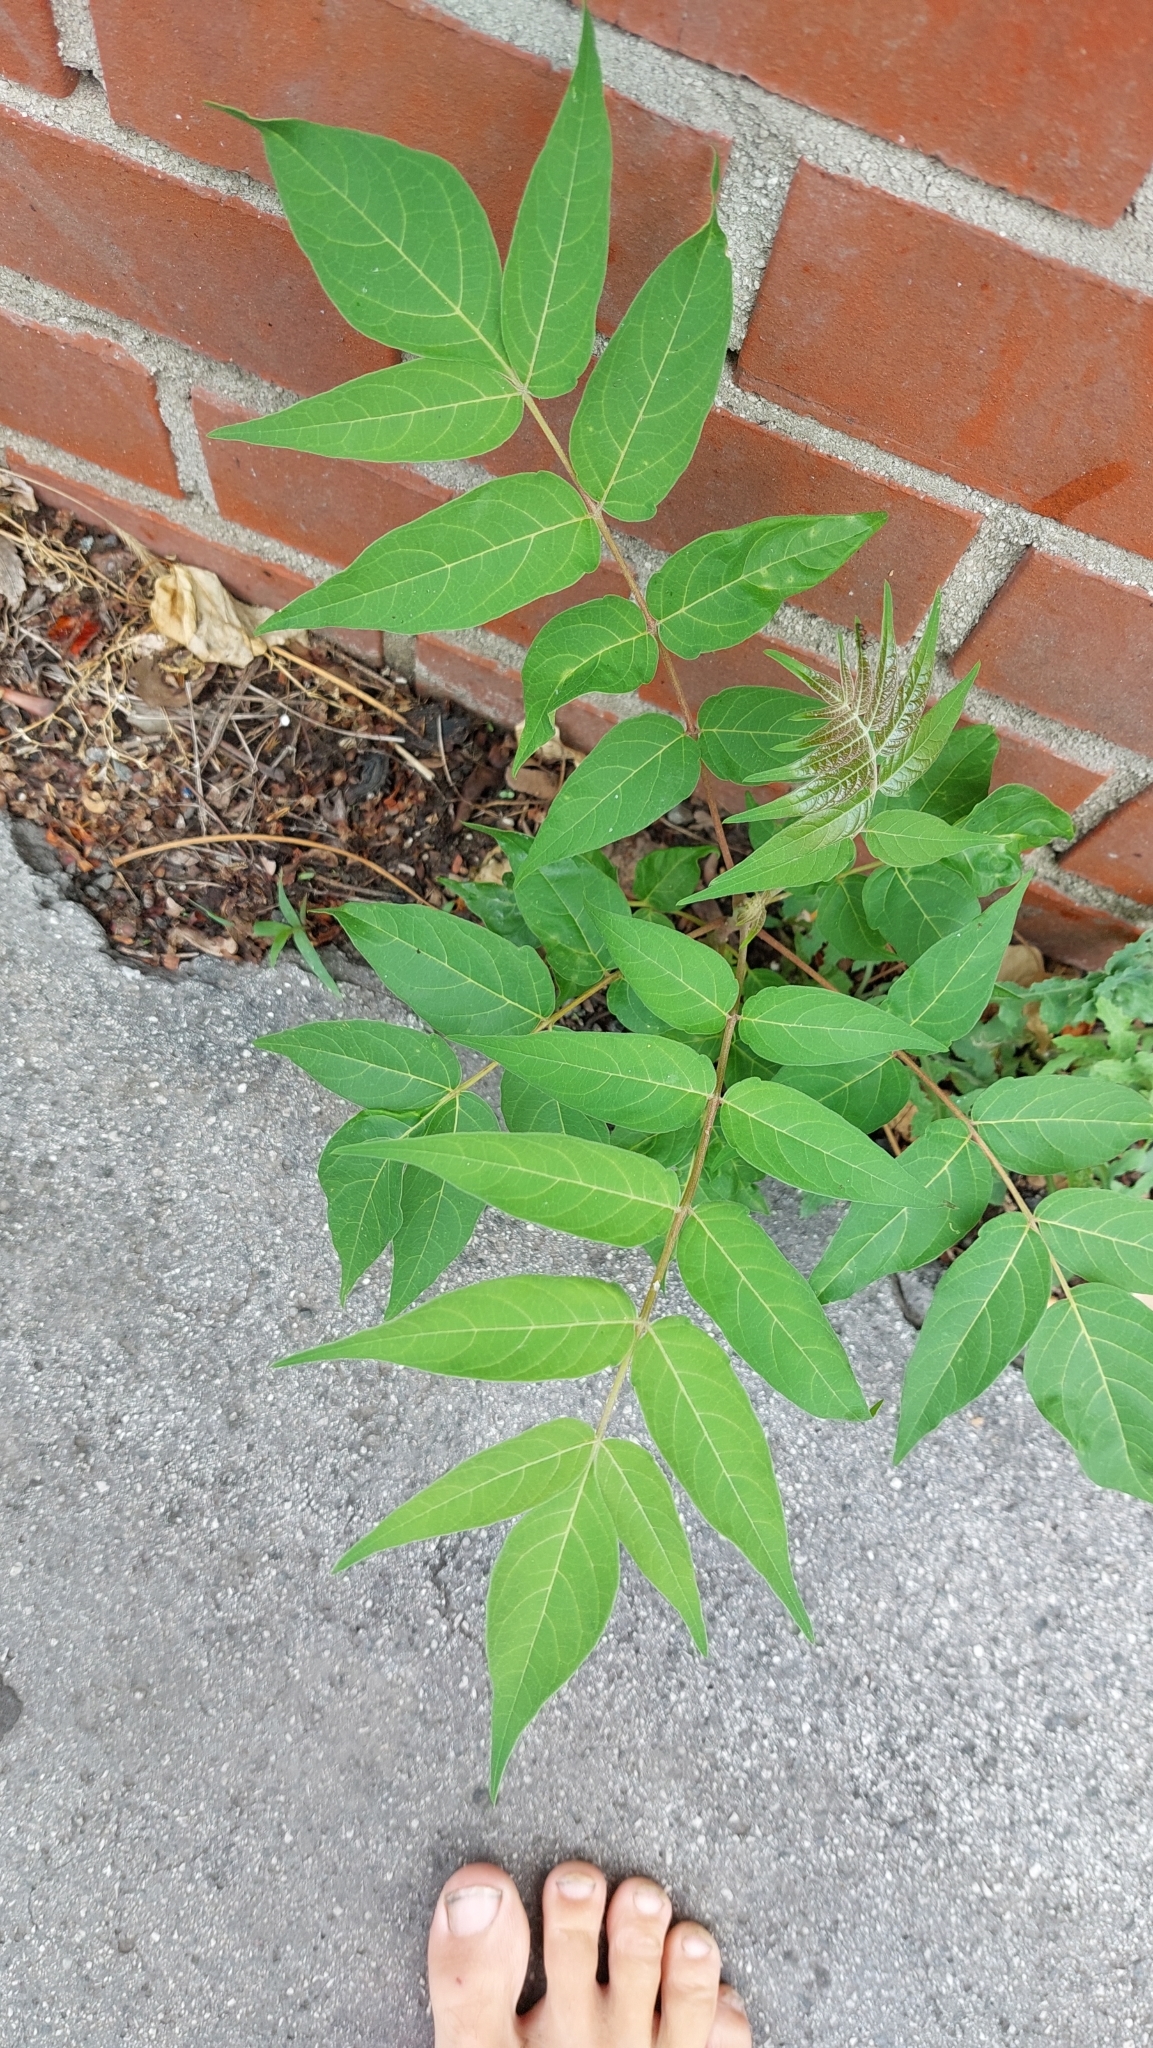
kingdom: Plantae
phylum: Tracheophyta
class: Magnoliopsida
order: Sapindales
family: Simaroubaceae
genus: Ailanthus
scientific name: Ailanthus altissima
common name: Tree-of-heaven
